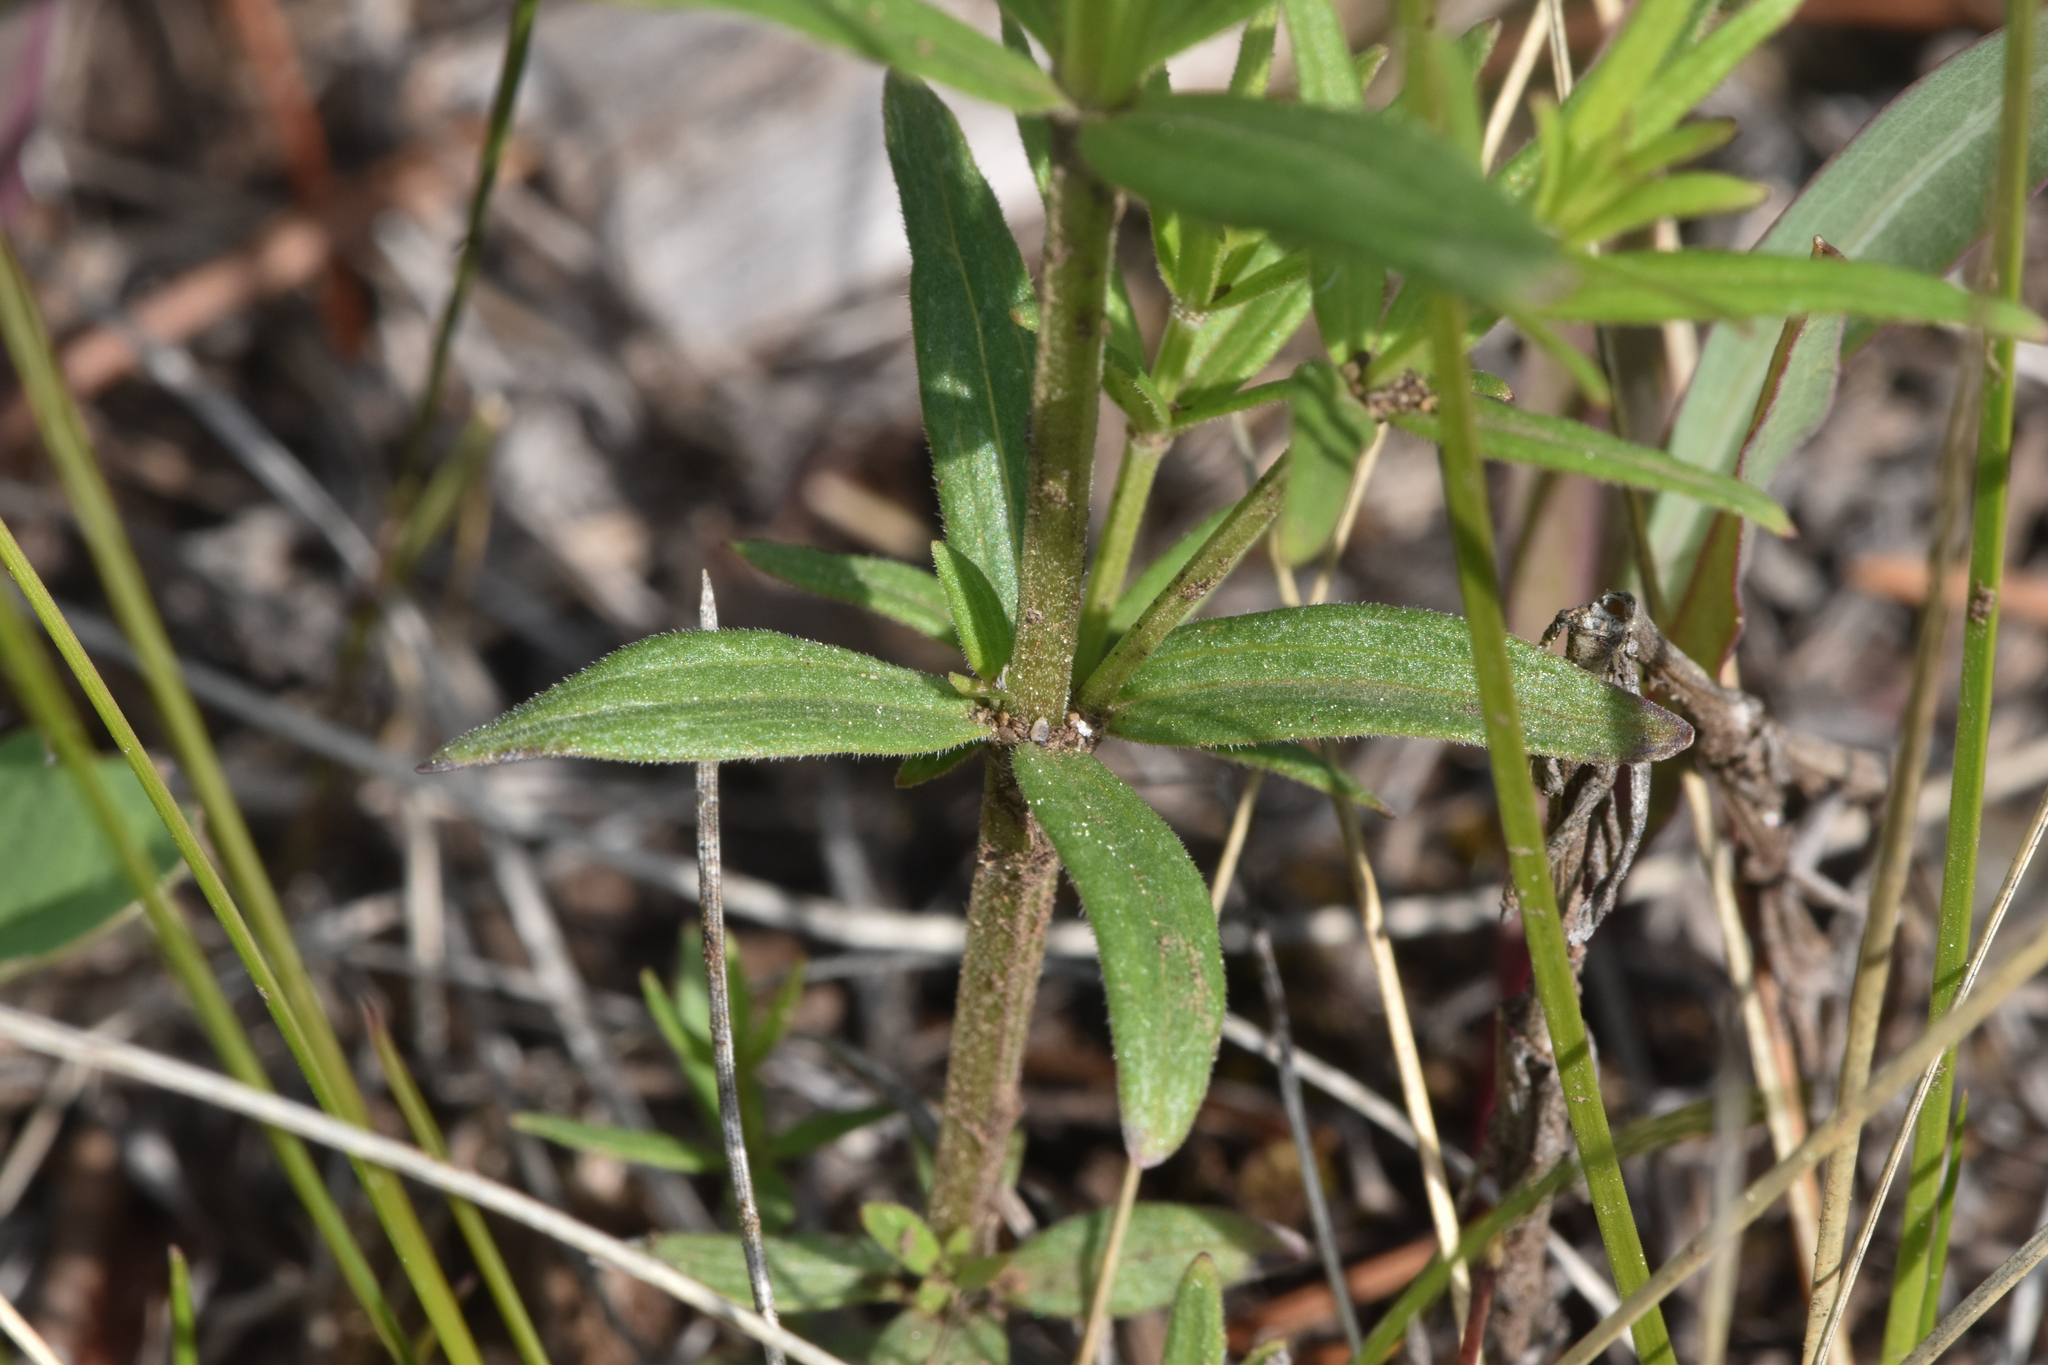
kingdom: Plantae
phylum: Tracheophyta
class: Magnoliopsida
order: Gentianales
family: Rubiaceae
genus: Galium
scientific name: Galium boreale
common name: Northern bedstraw
